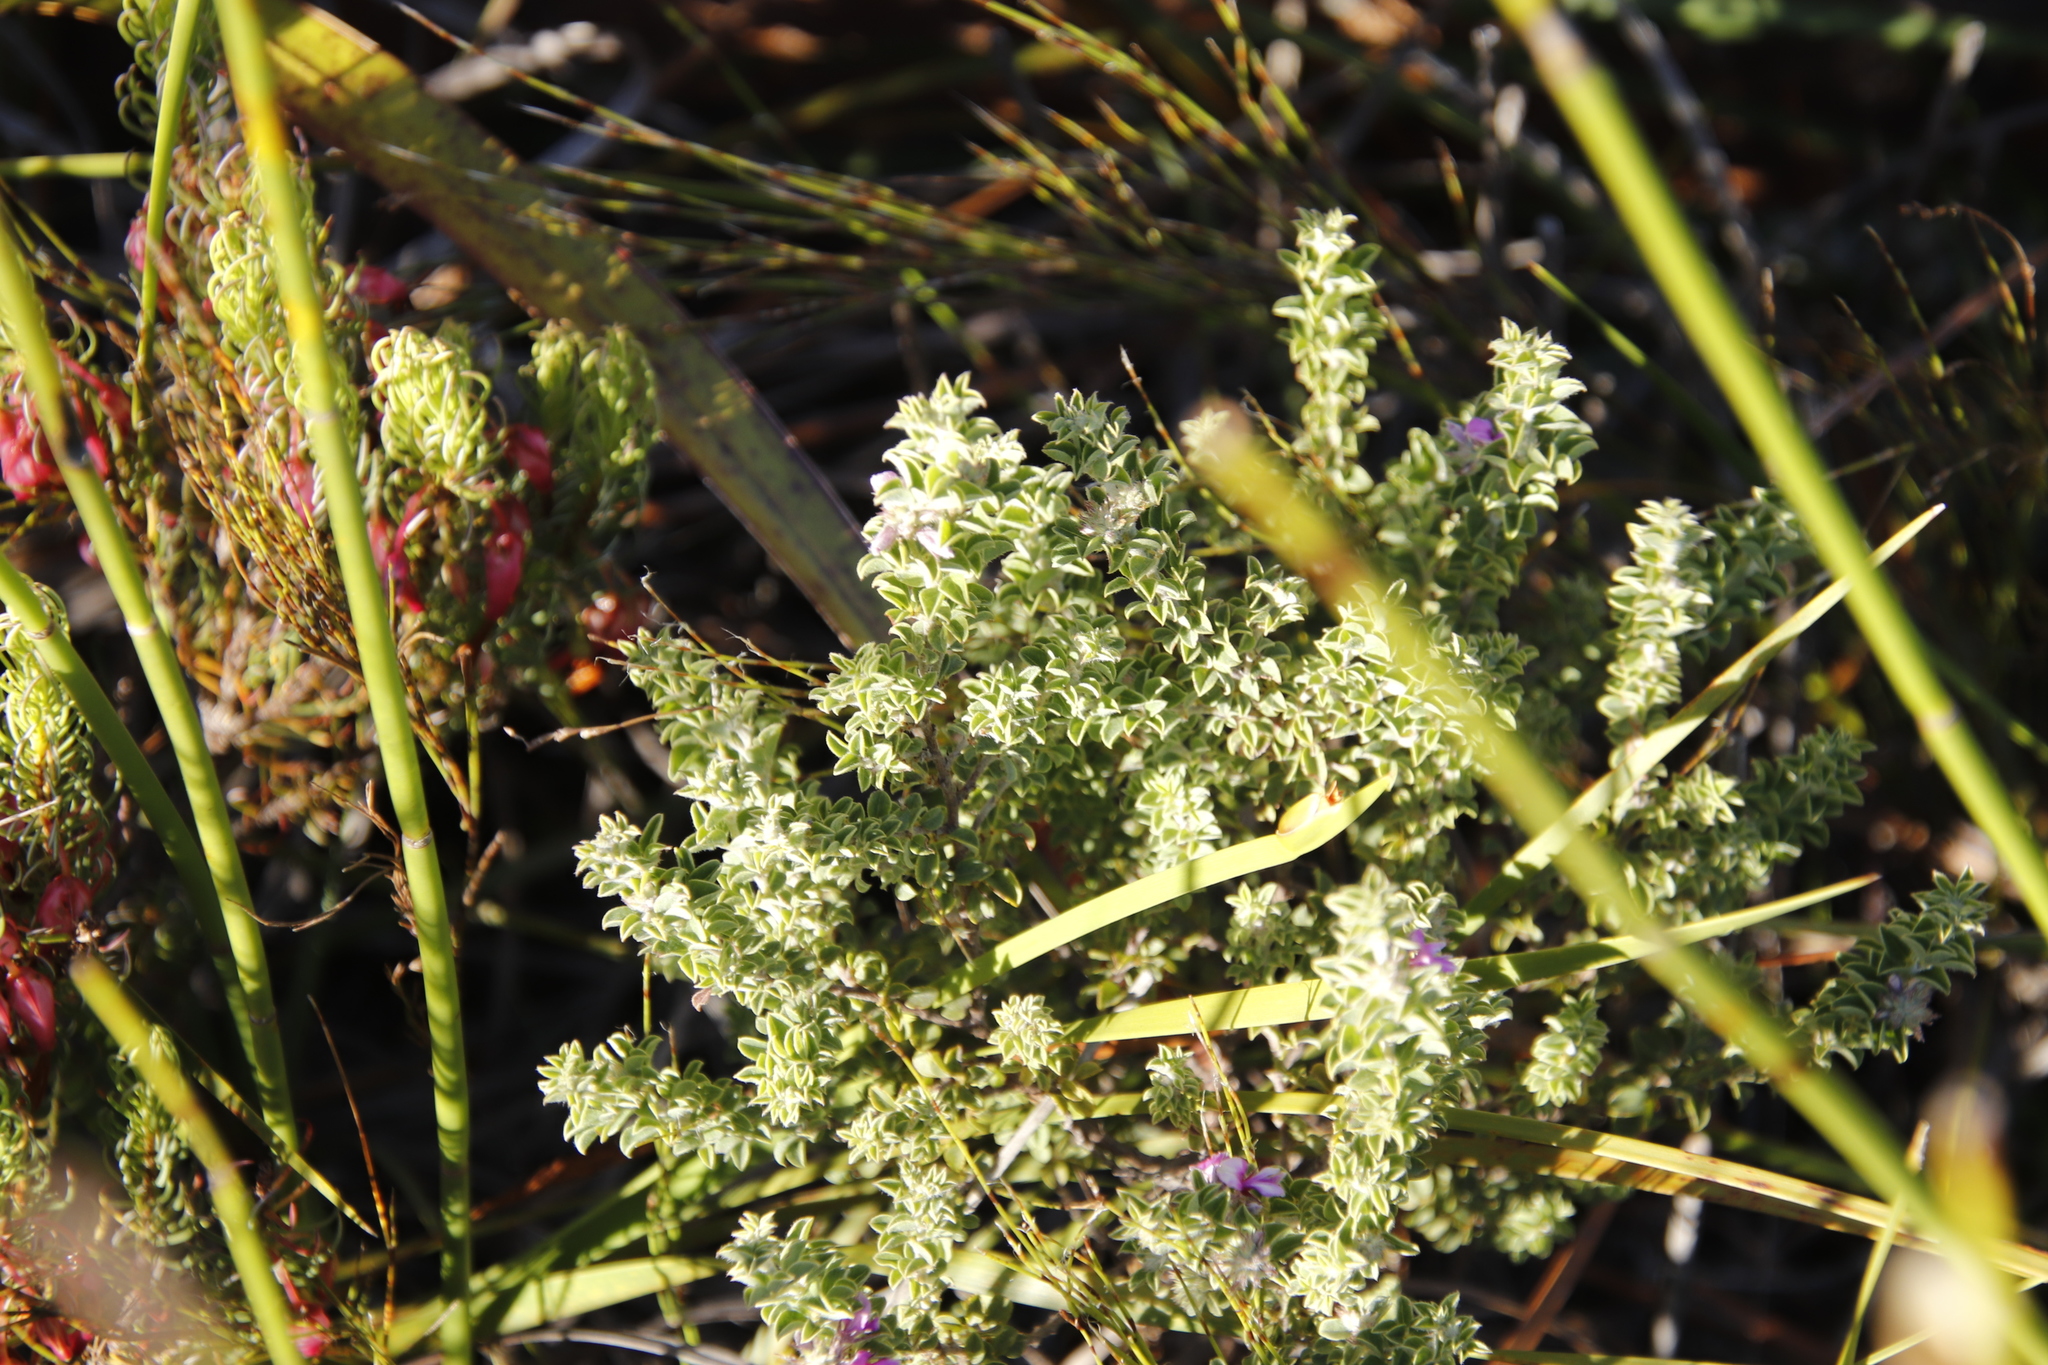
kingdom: Plantae
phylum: Tracheophyta
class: Magnoliopsida
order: Fabales
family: Fabaceae
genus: Indigofera
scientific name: Indigofera candolleana
